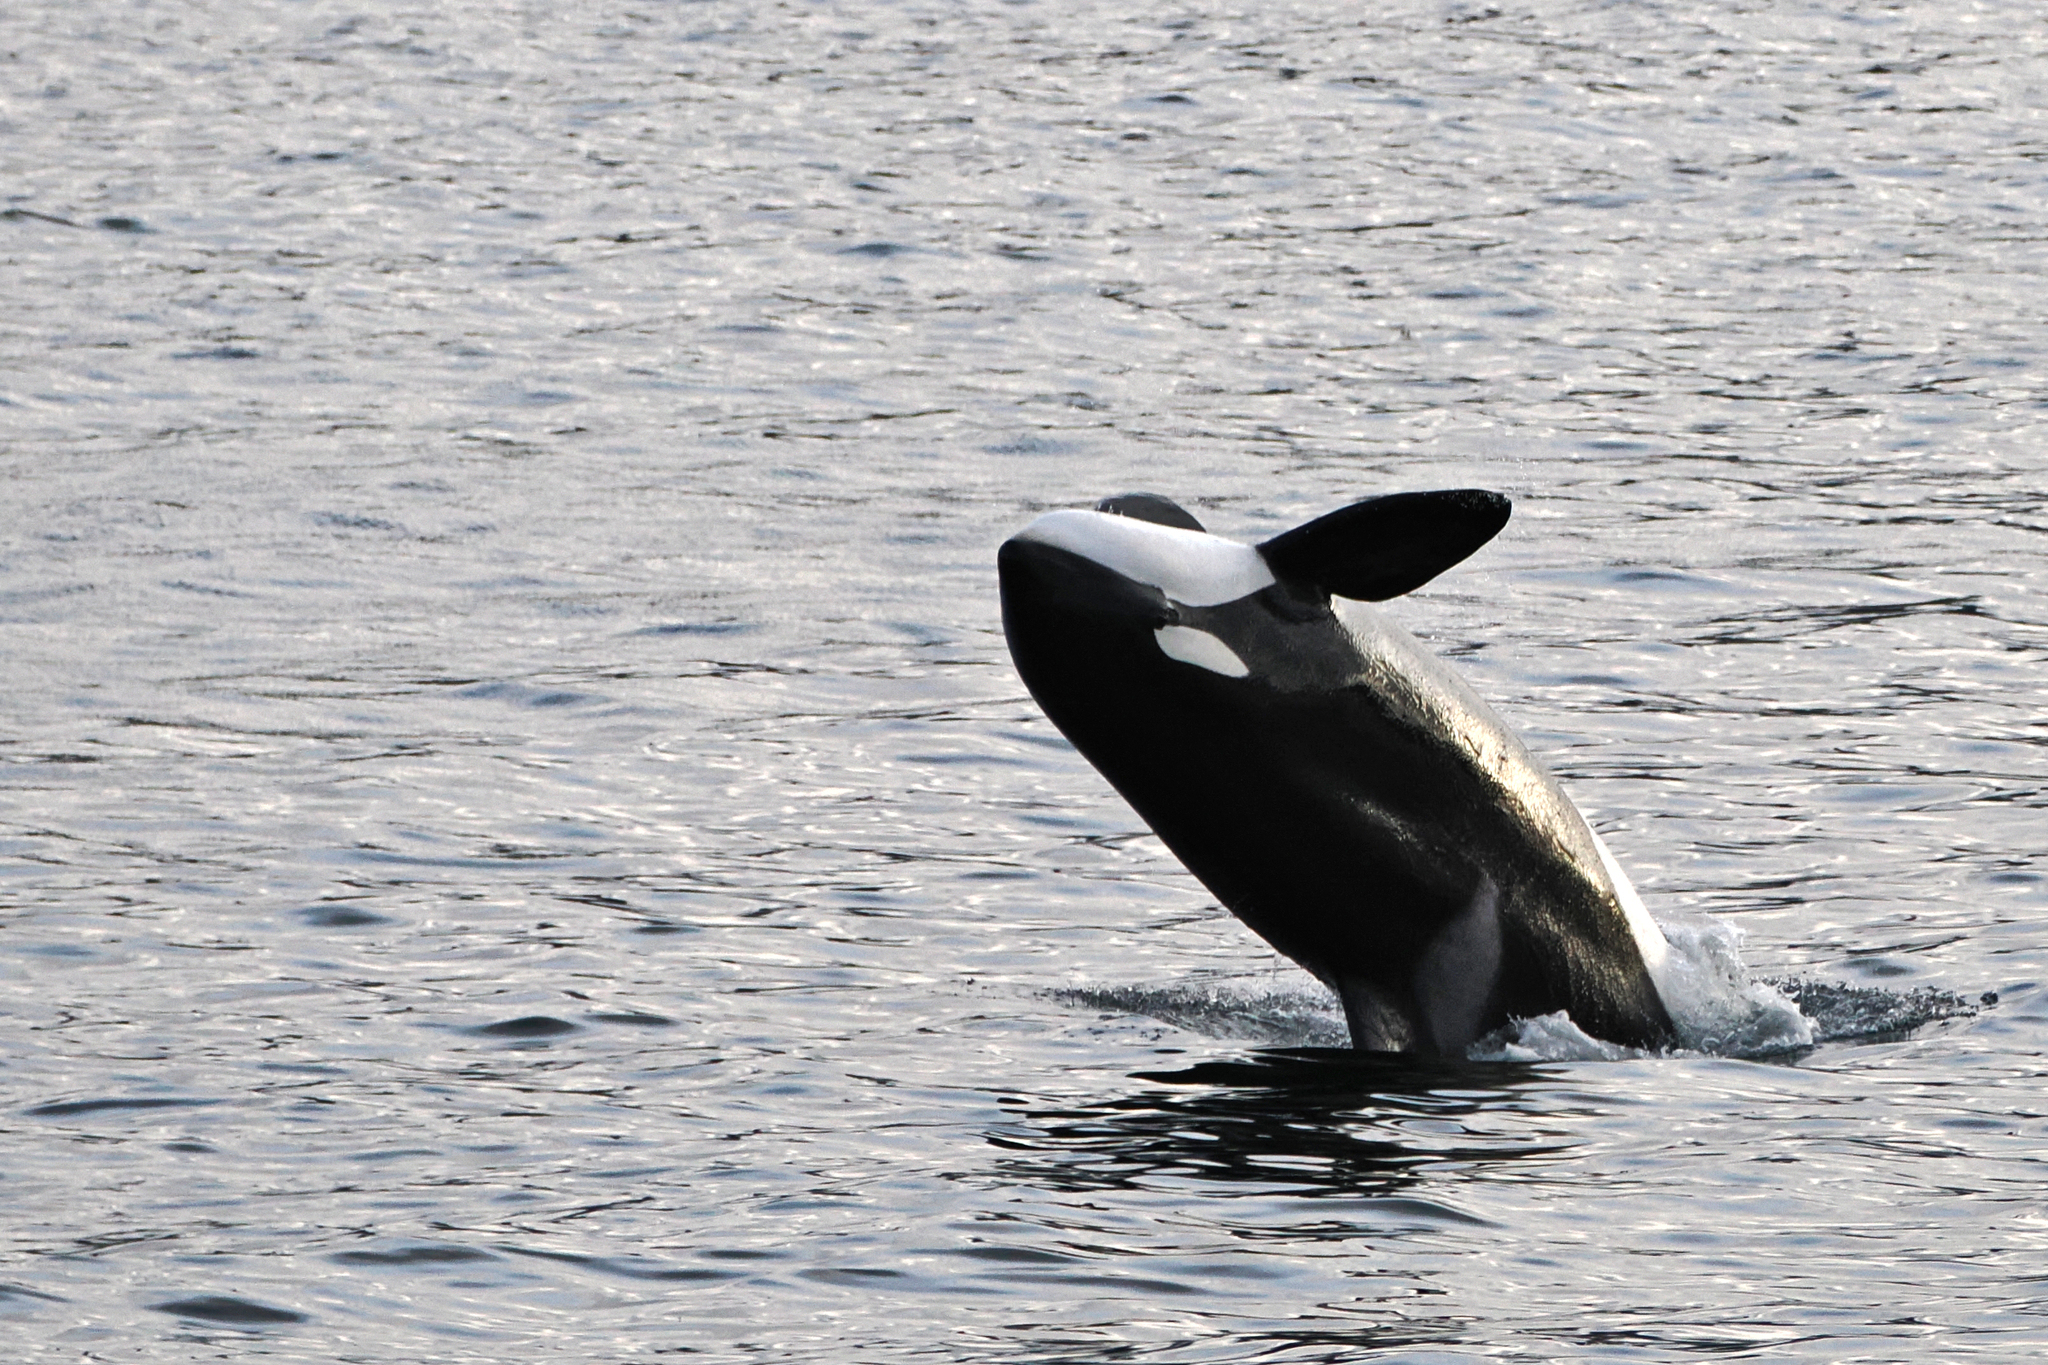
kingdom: Animalia
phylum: Chordata
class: Mammalia
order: Cetacea
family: Delphinidae
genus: Orcinus
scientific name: Orcinus orca
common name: Killer whale
